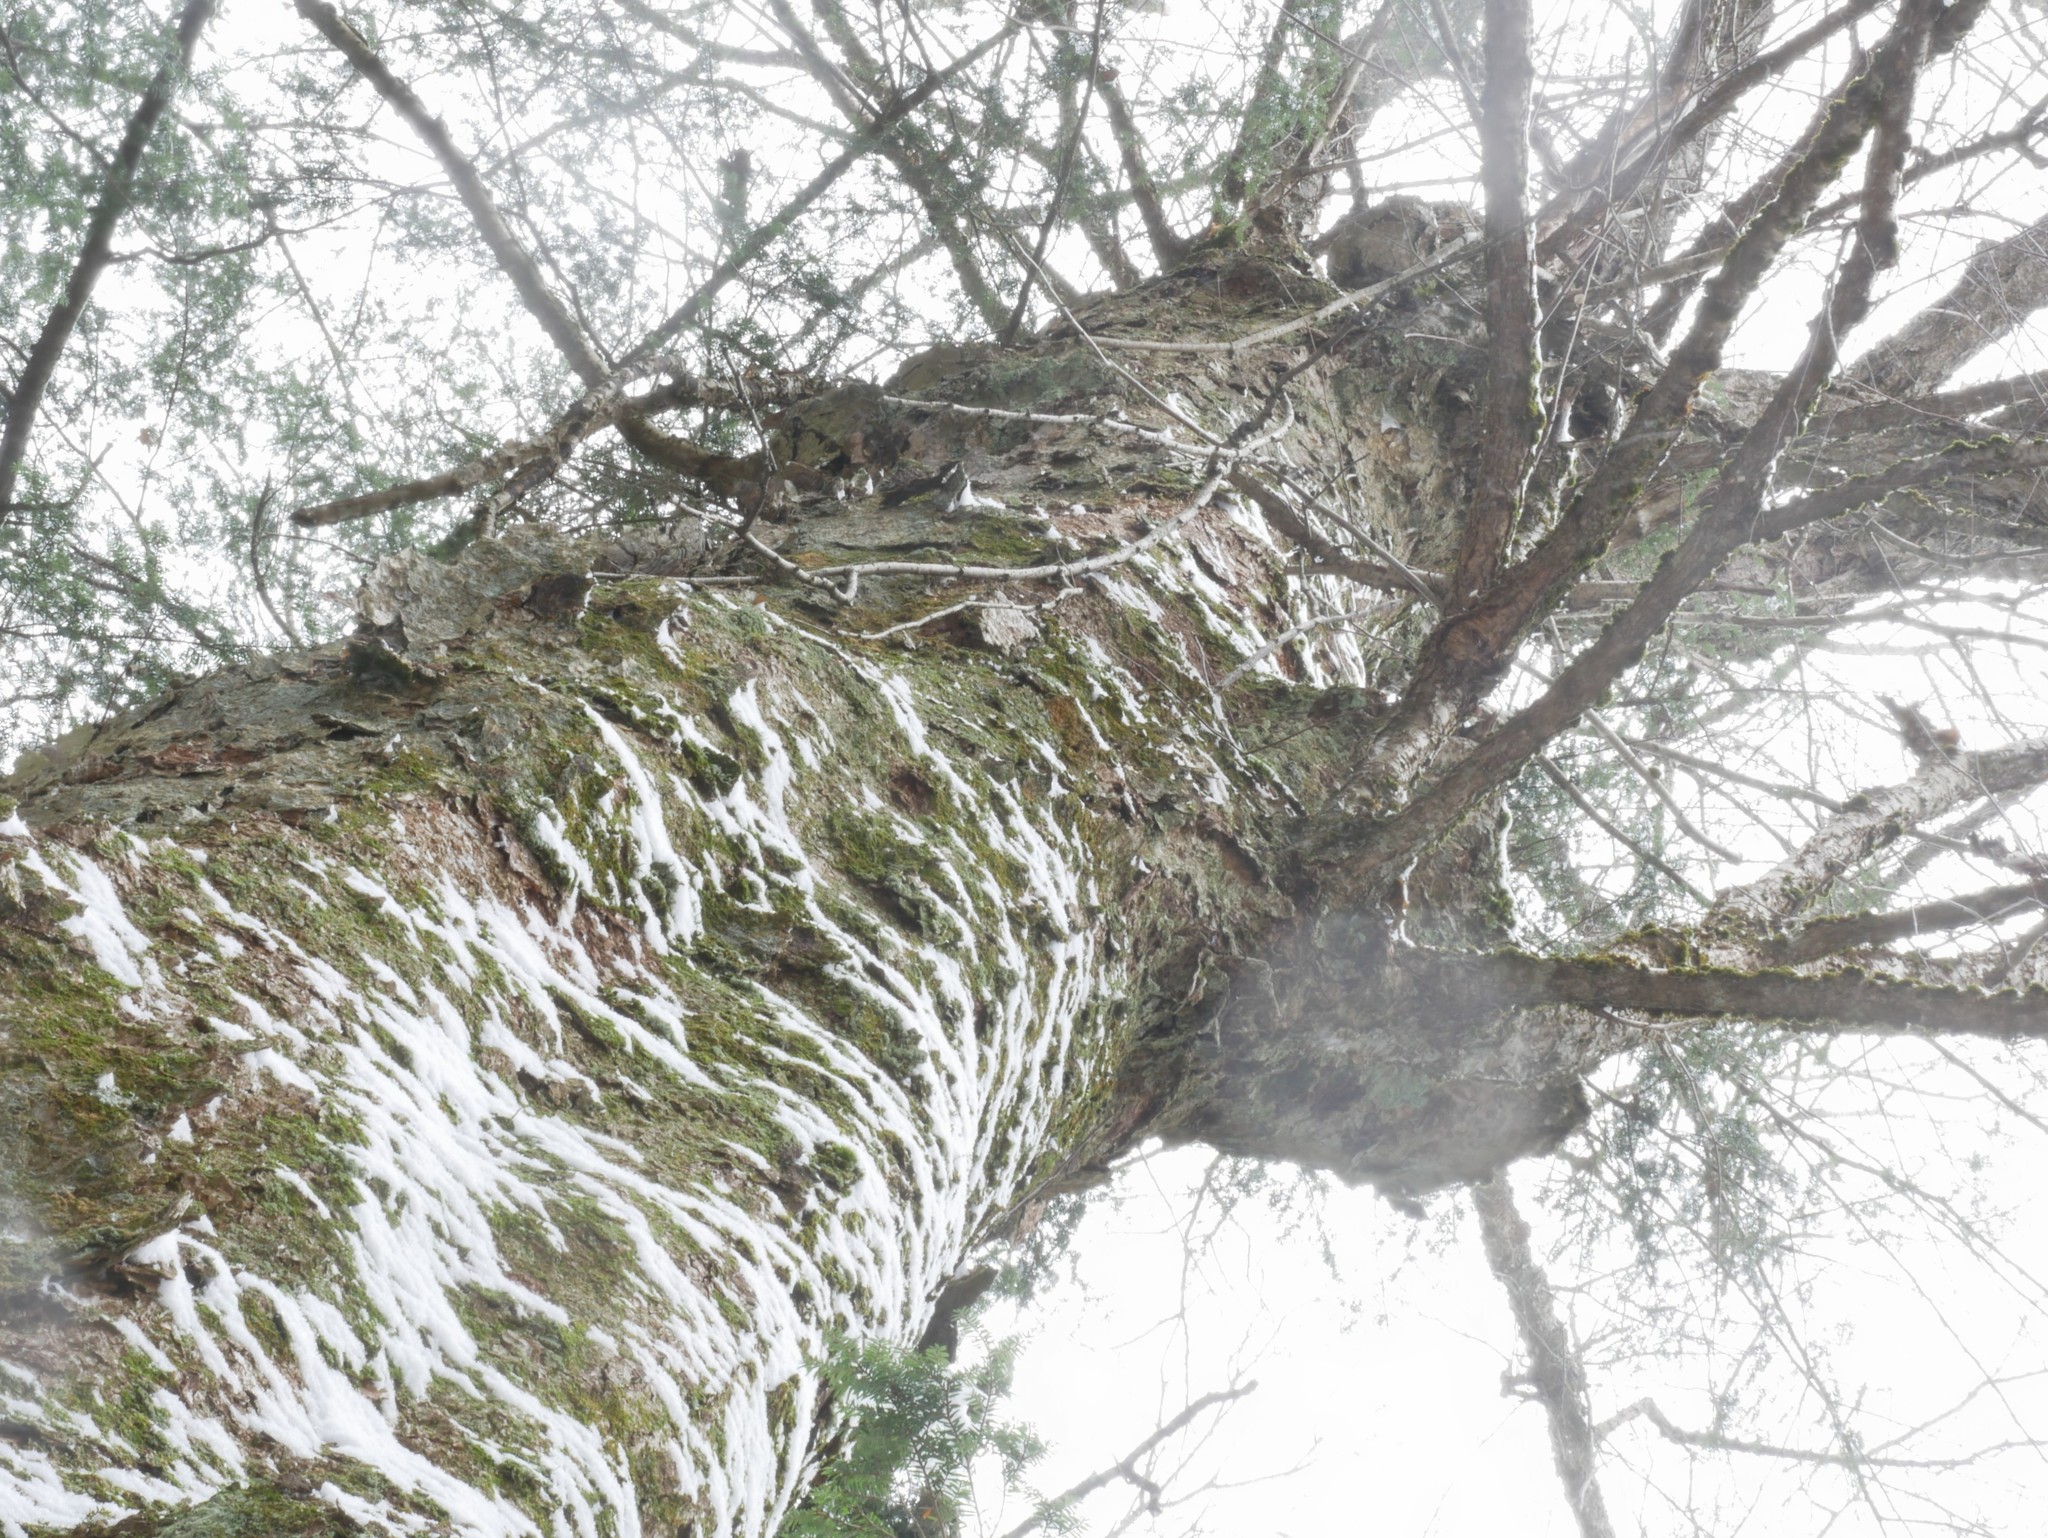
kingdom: Plantae
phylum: Tracheophyta
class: Magnoliopsida
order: Fagales
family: Betulaceae
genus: Betula
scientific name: Betula alleghaniensis
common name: Yellow birch
